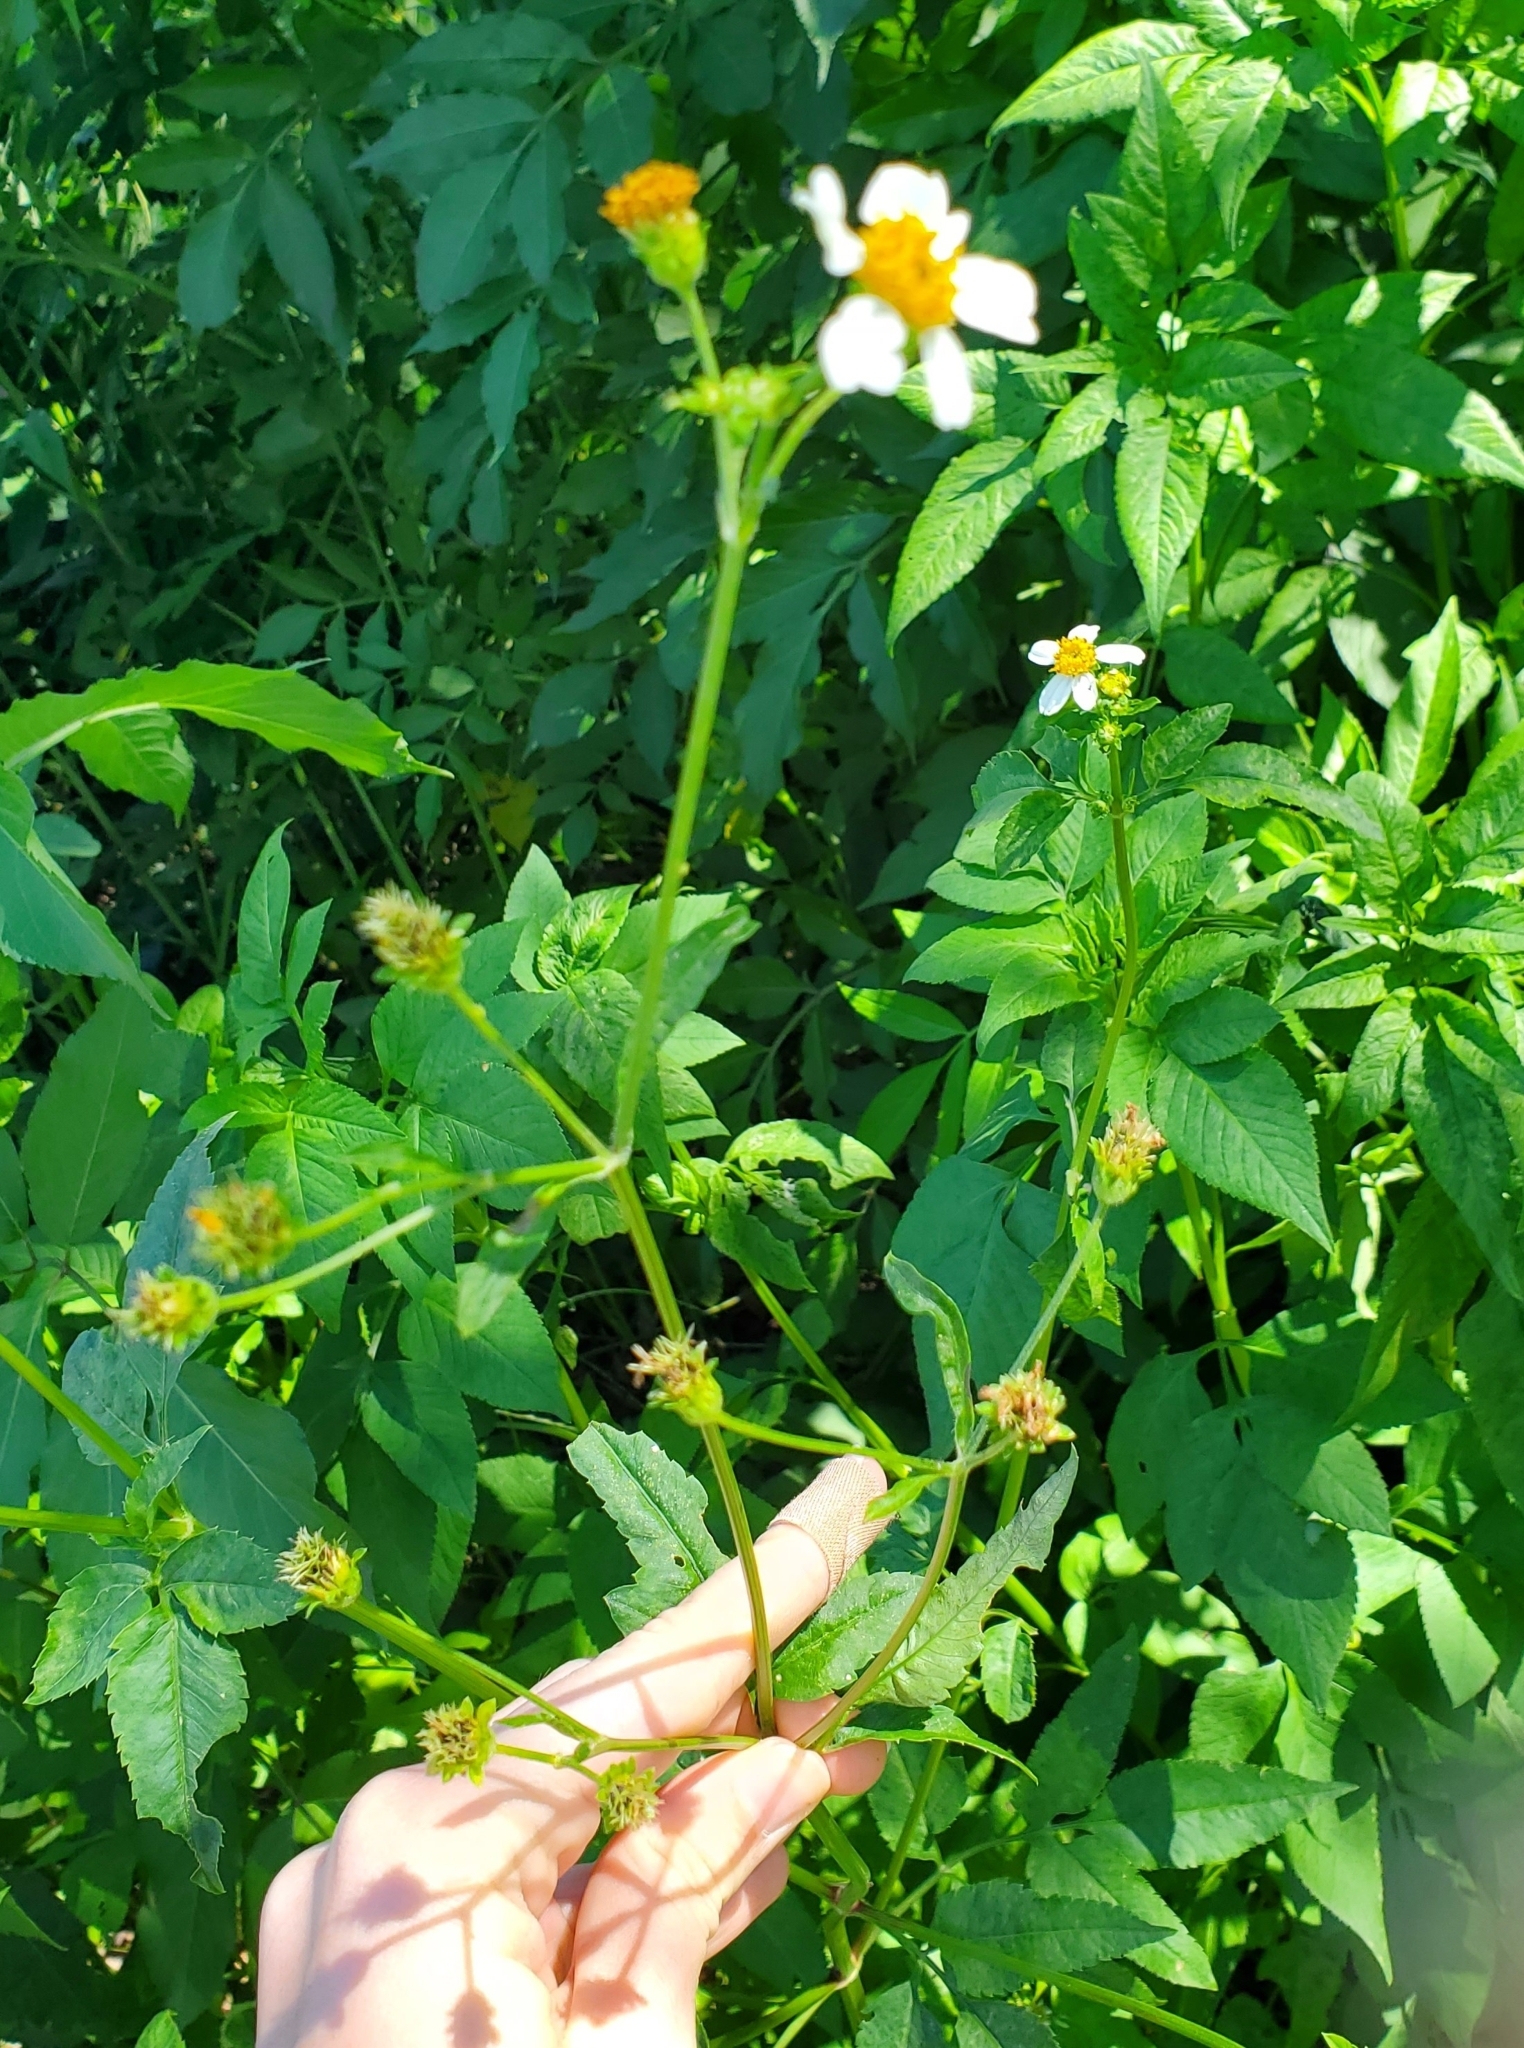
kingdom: Plantae
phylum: Tracheophyta
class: Magnoliopsida
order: Asterales
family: Asteraceae
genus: Bidens
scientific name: Bidens alba
